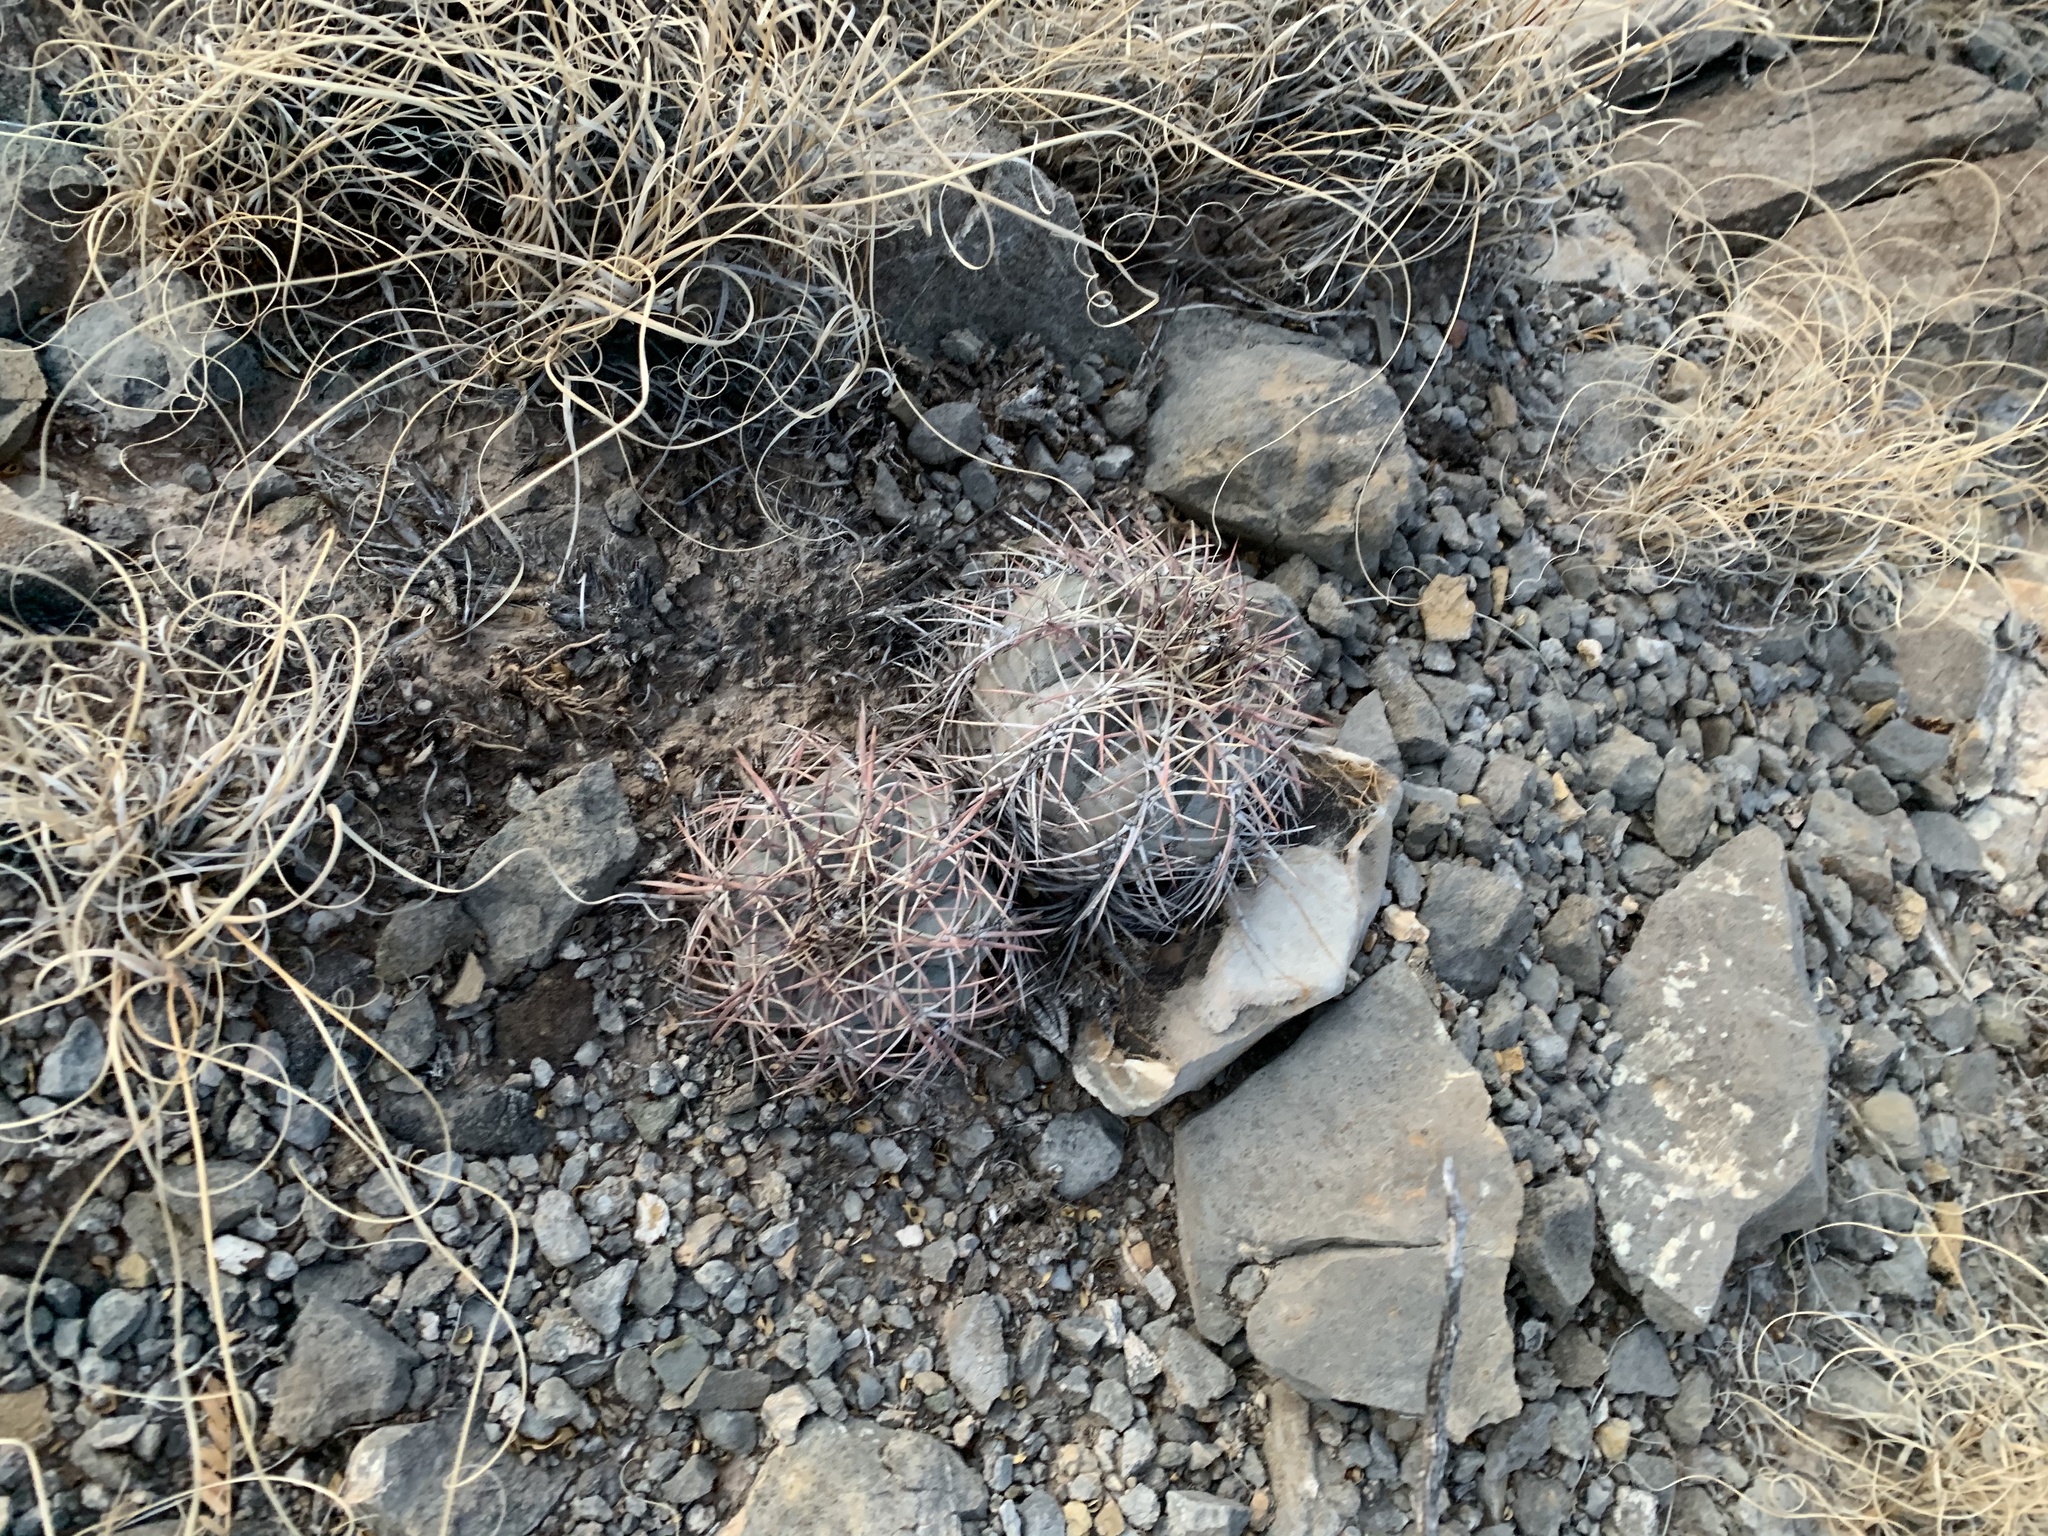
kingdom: Plantae
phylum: Tracheophyta
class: Magnoliopsida
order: Caryophyllales
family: Cactaceae
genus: Echinocactus
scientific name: Echinocactus horizonthalonius
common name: Devilshead
